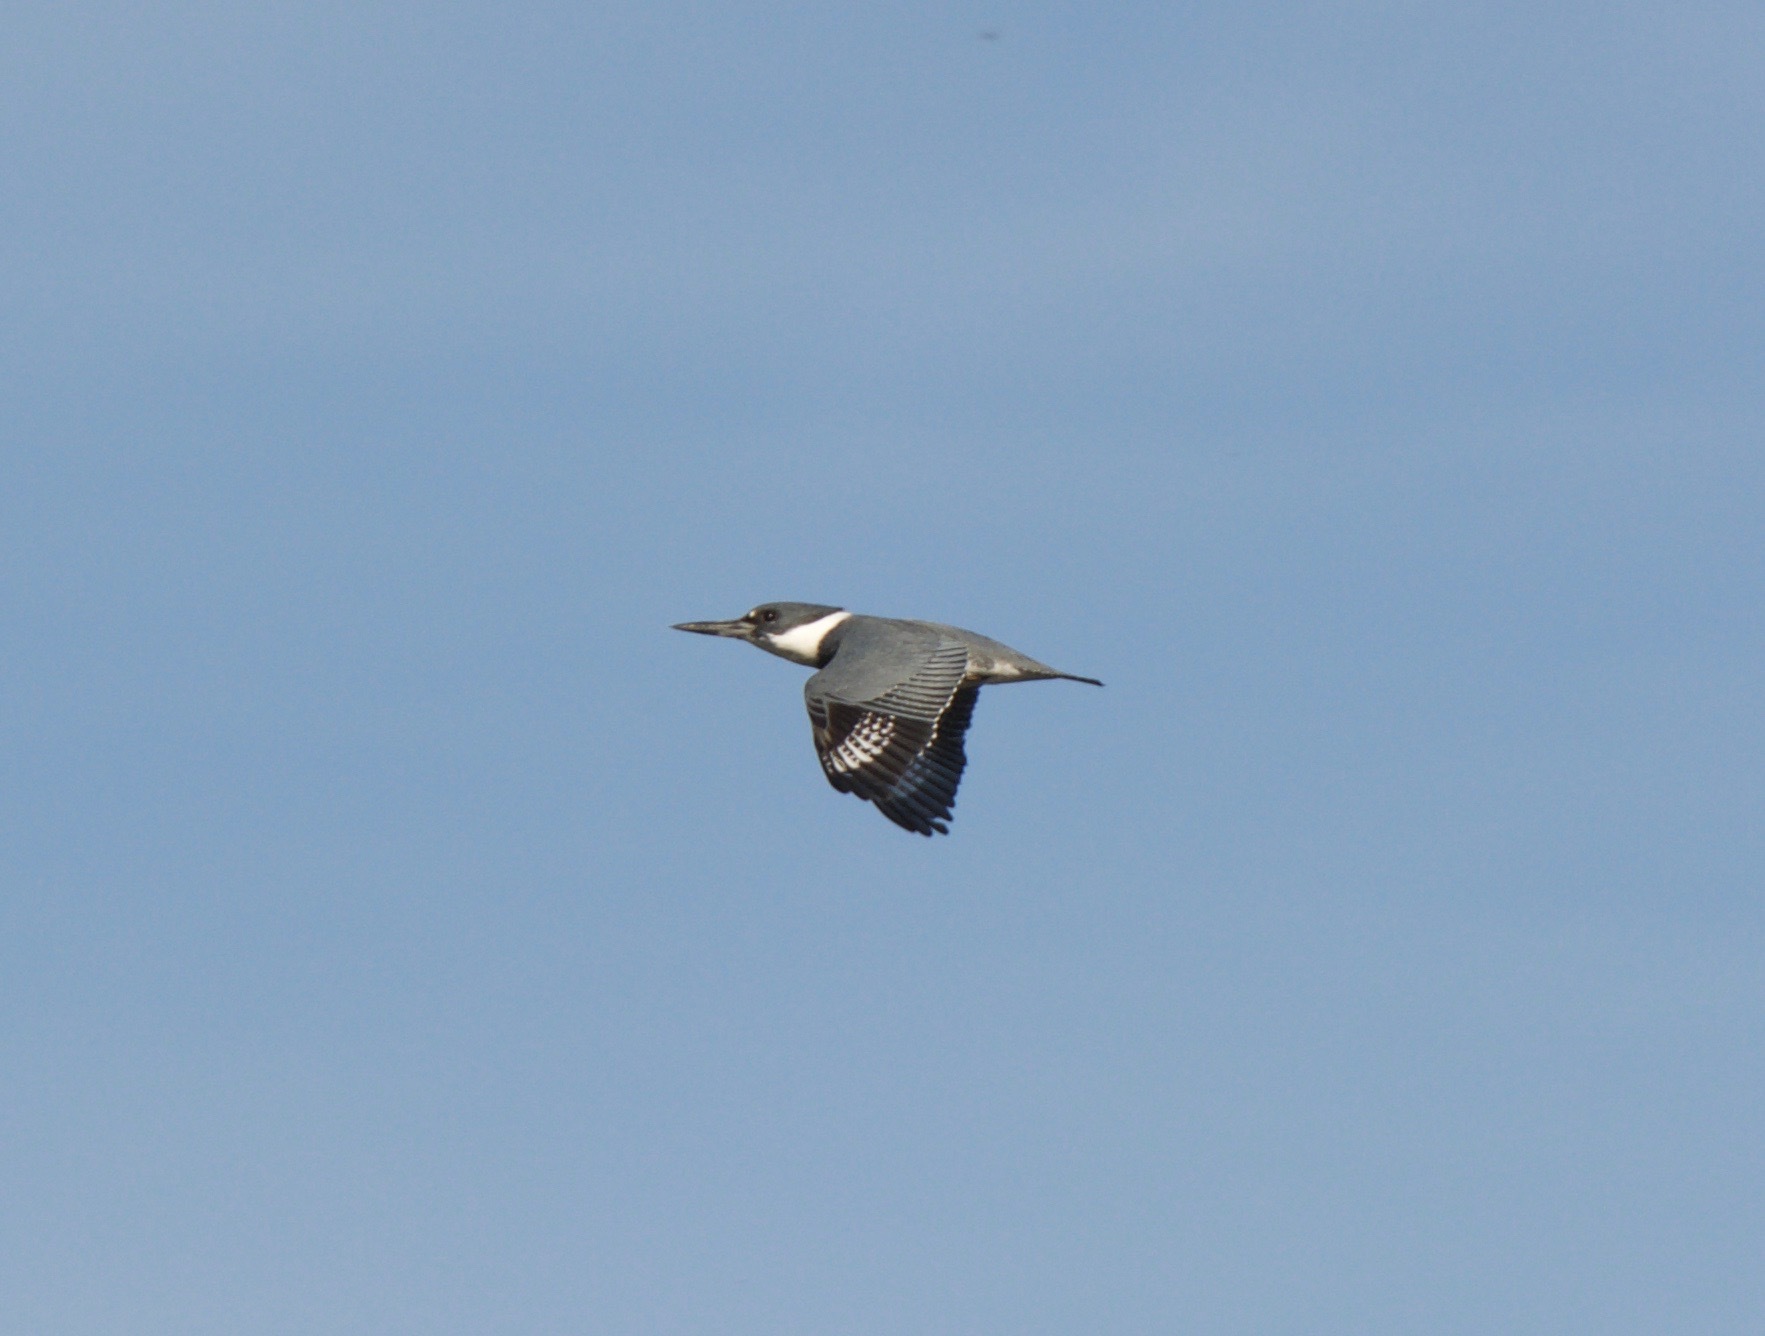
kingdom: Animalia
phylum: Chordata
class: Aves
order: Coraciiformes
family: Alcedinidae
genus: Megaceryle
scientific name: Megaceryle alcyon
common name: Belted kingfisher
